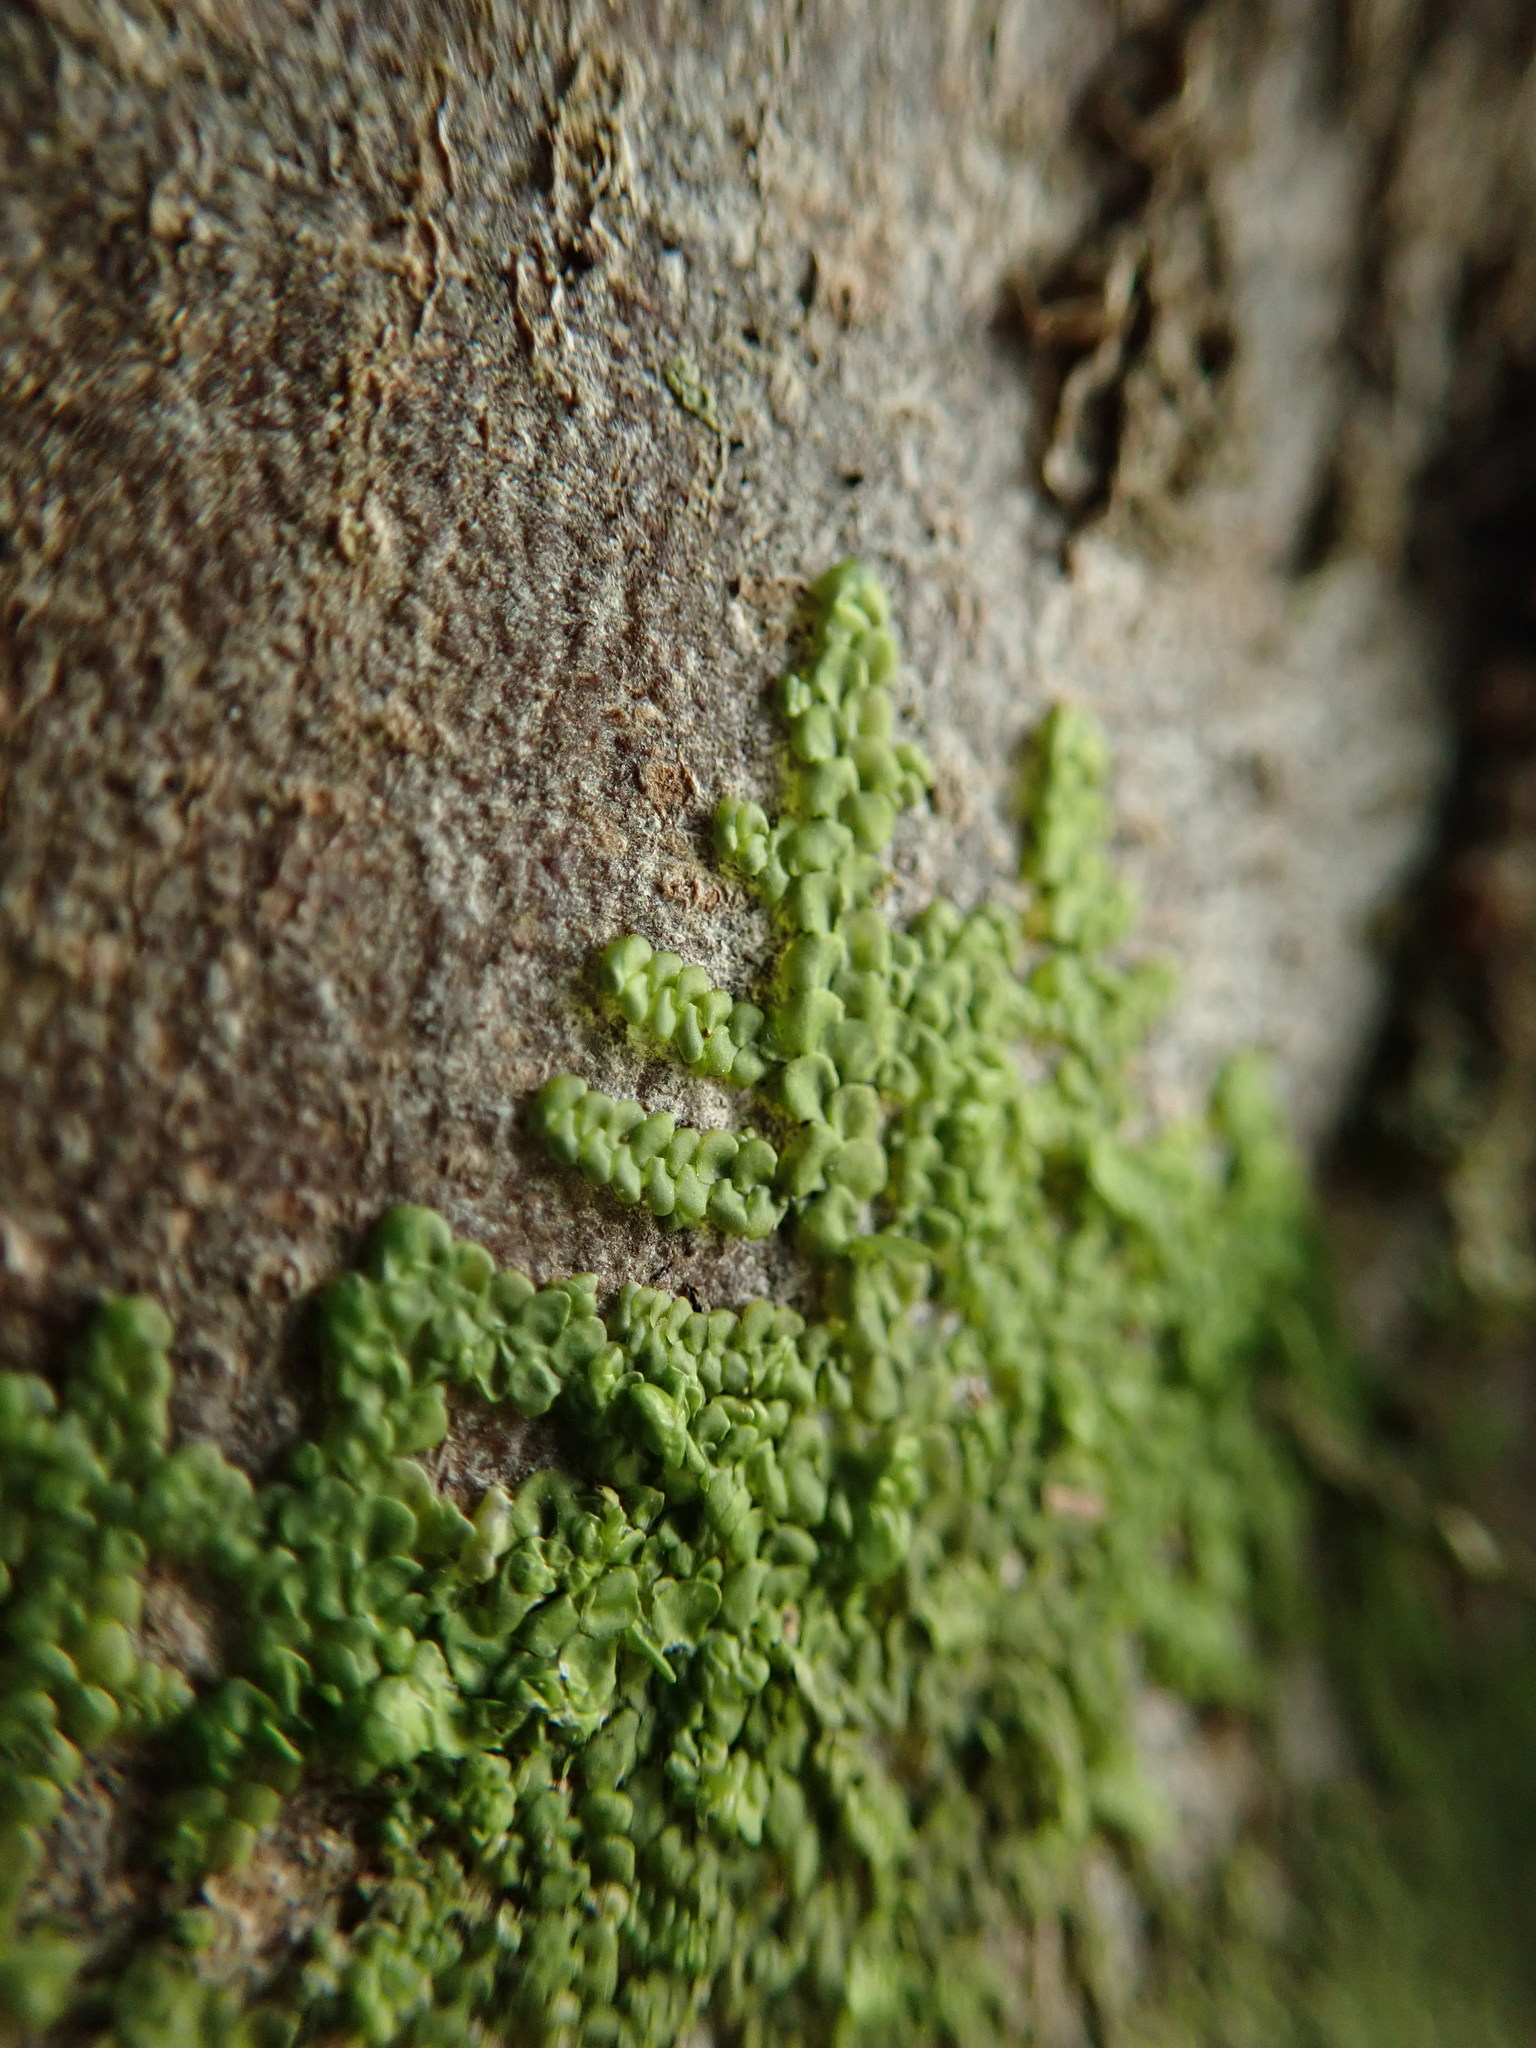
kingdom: Plantae
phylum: Marchantiophyta
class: Jungermanniopsida
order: Porellales
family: Radulaceae
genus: Radula
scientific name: Radula complanata
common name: Flat-leaved scalewort
